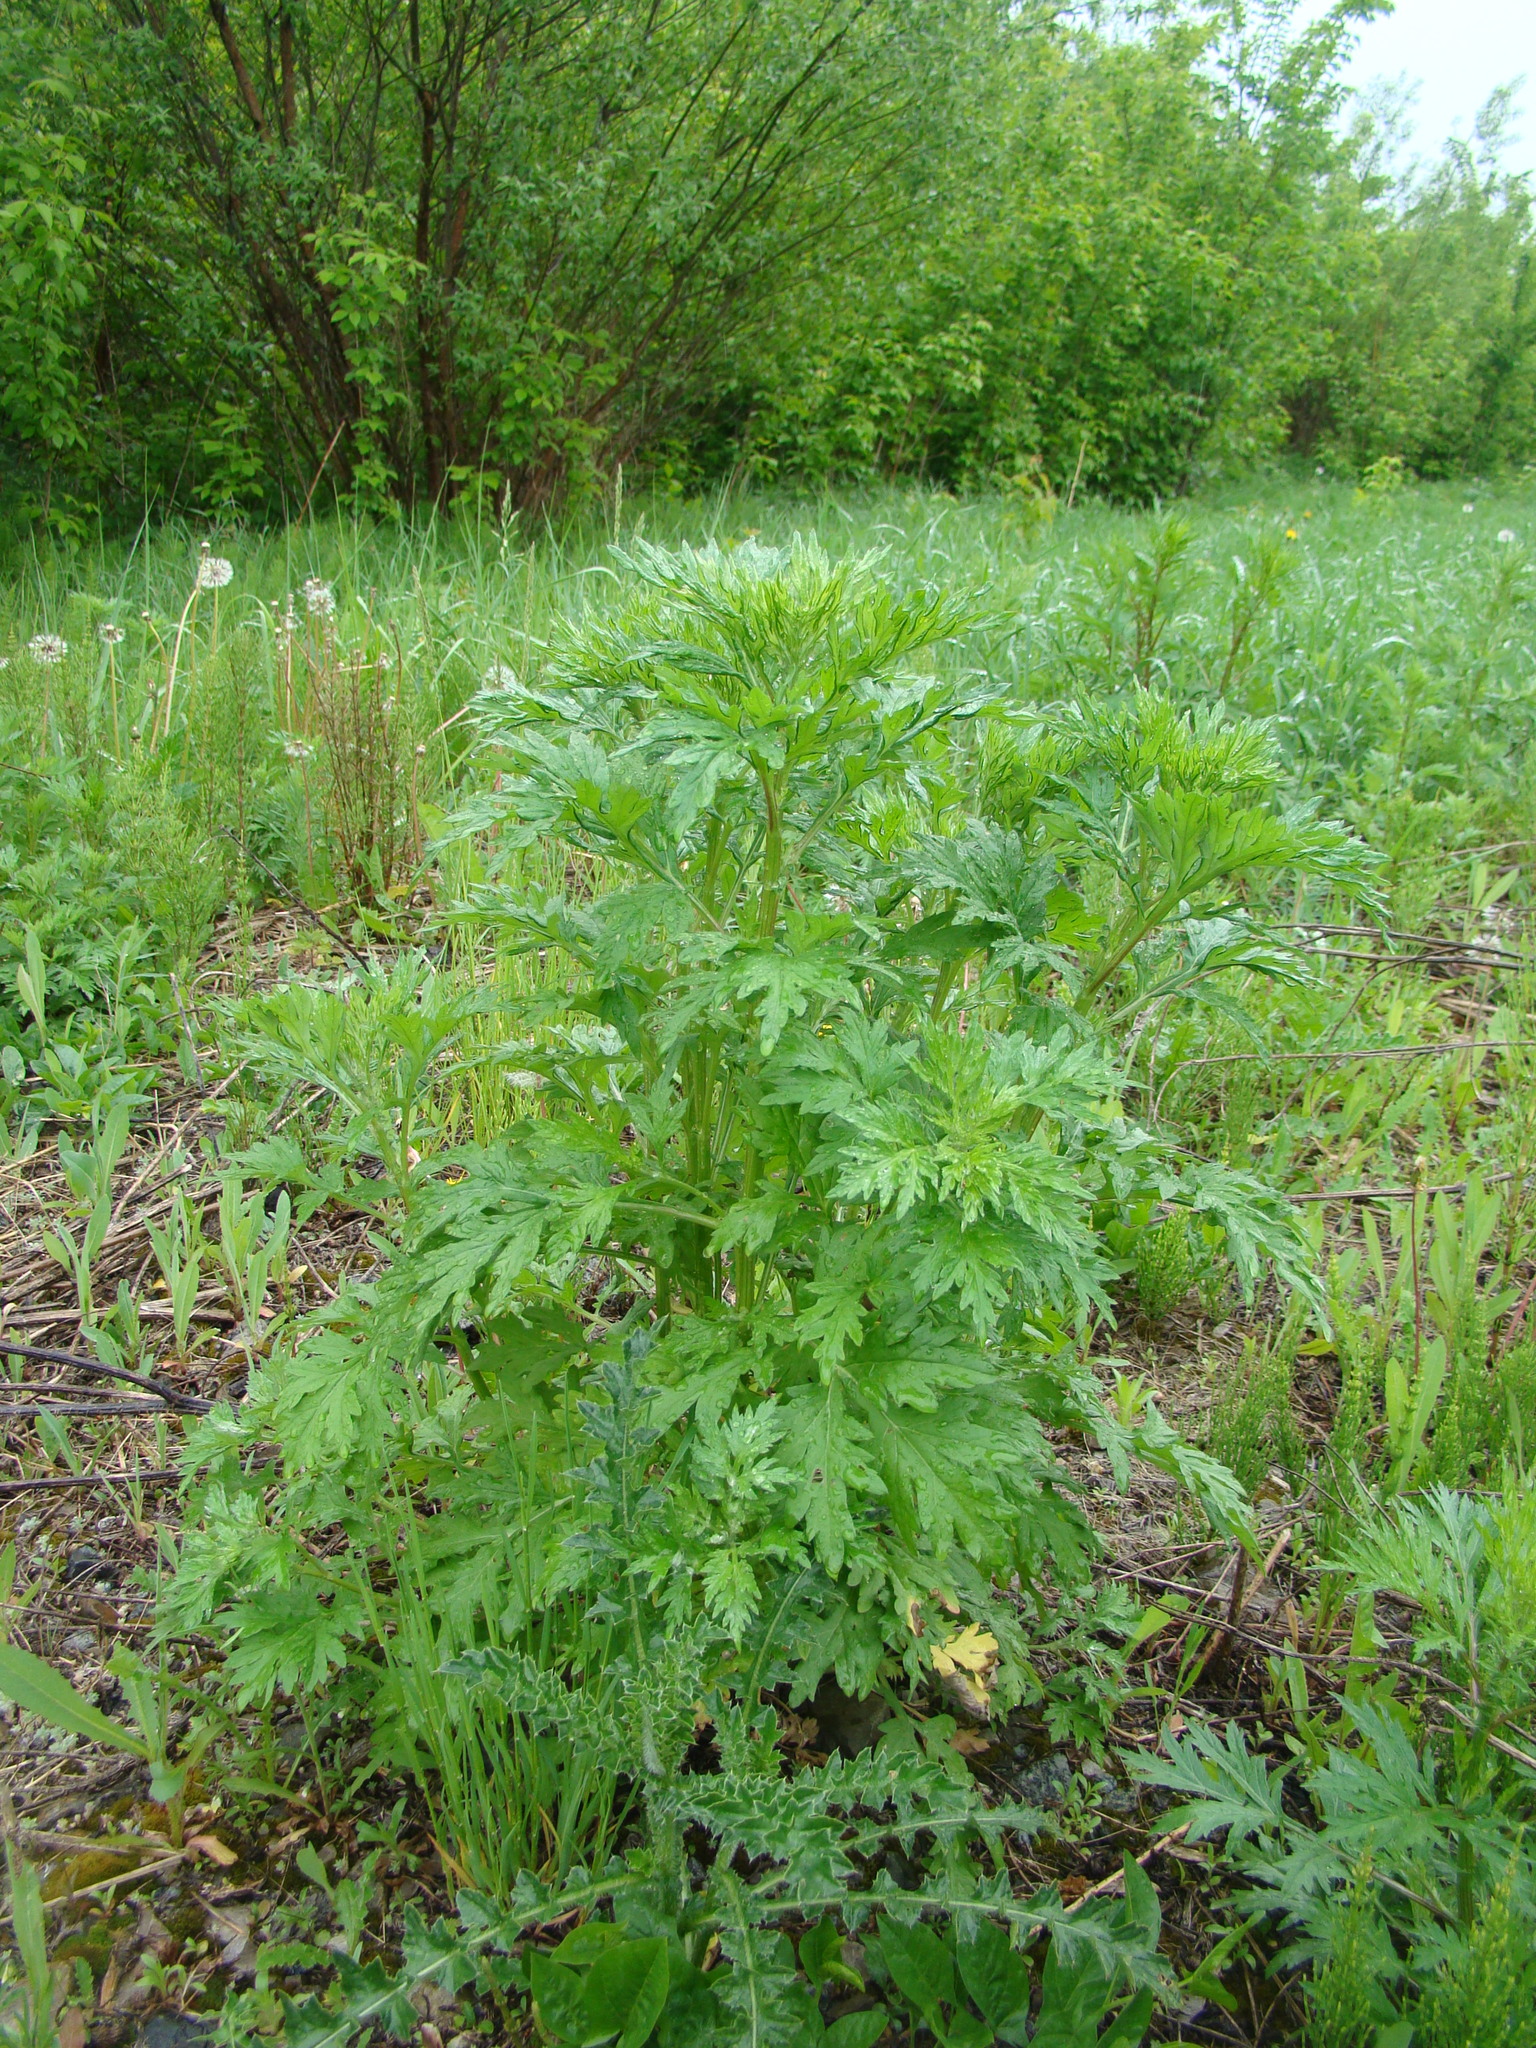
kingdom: Plantae
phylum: Tracheophyta
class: Magnoliopsida
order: Asterales
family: Asteraceae
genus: Artemisia
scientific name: Artemisia vulgaris
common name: Mugwort
